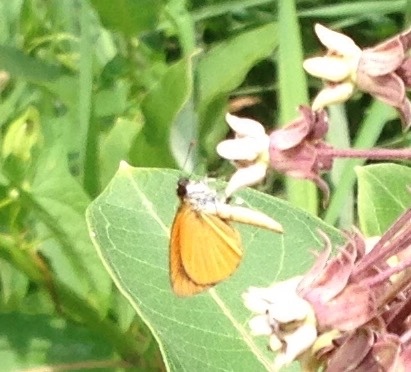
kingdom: Animalia
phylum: Arthropoda
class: Insecta
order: Lepidoptera
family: Hesperiidae
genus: Ancyloxypha
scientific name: Ancyloxypha numitor
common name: Least skipper
